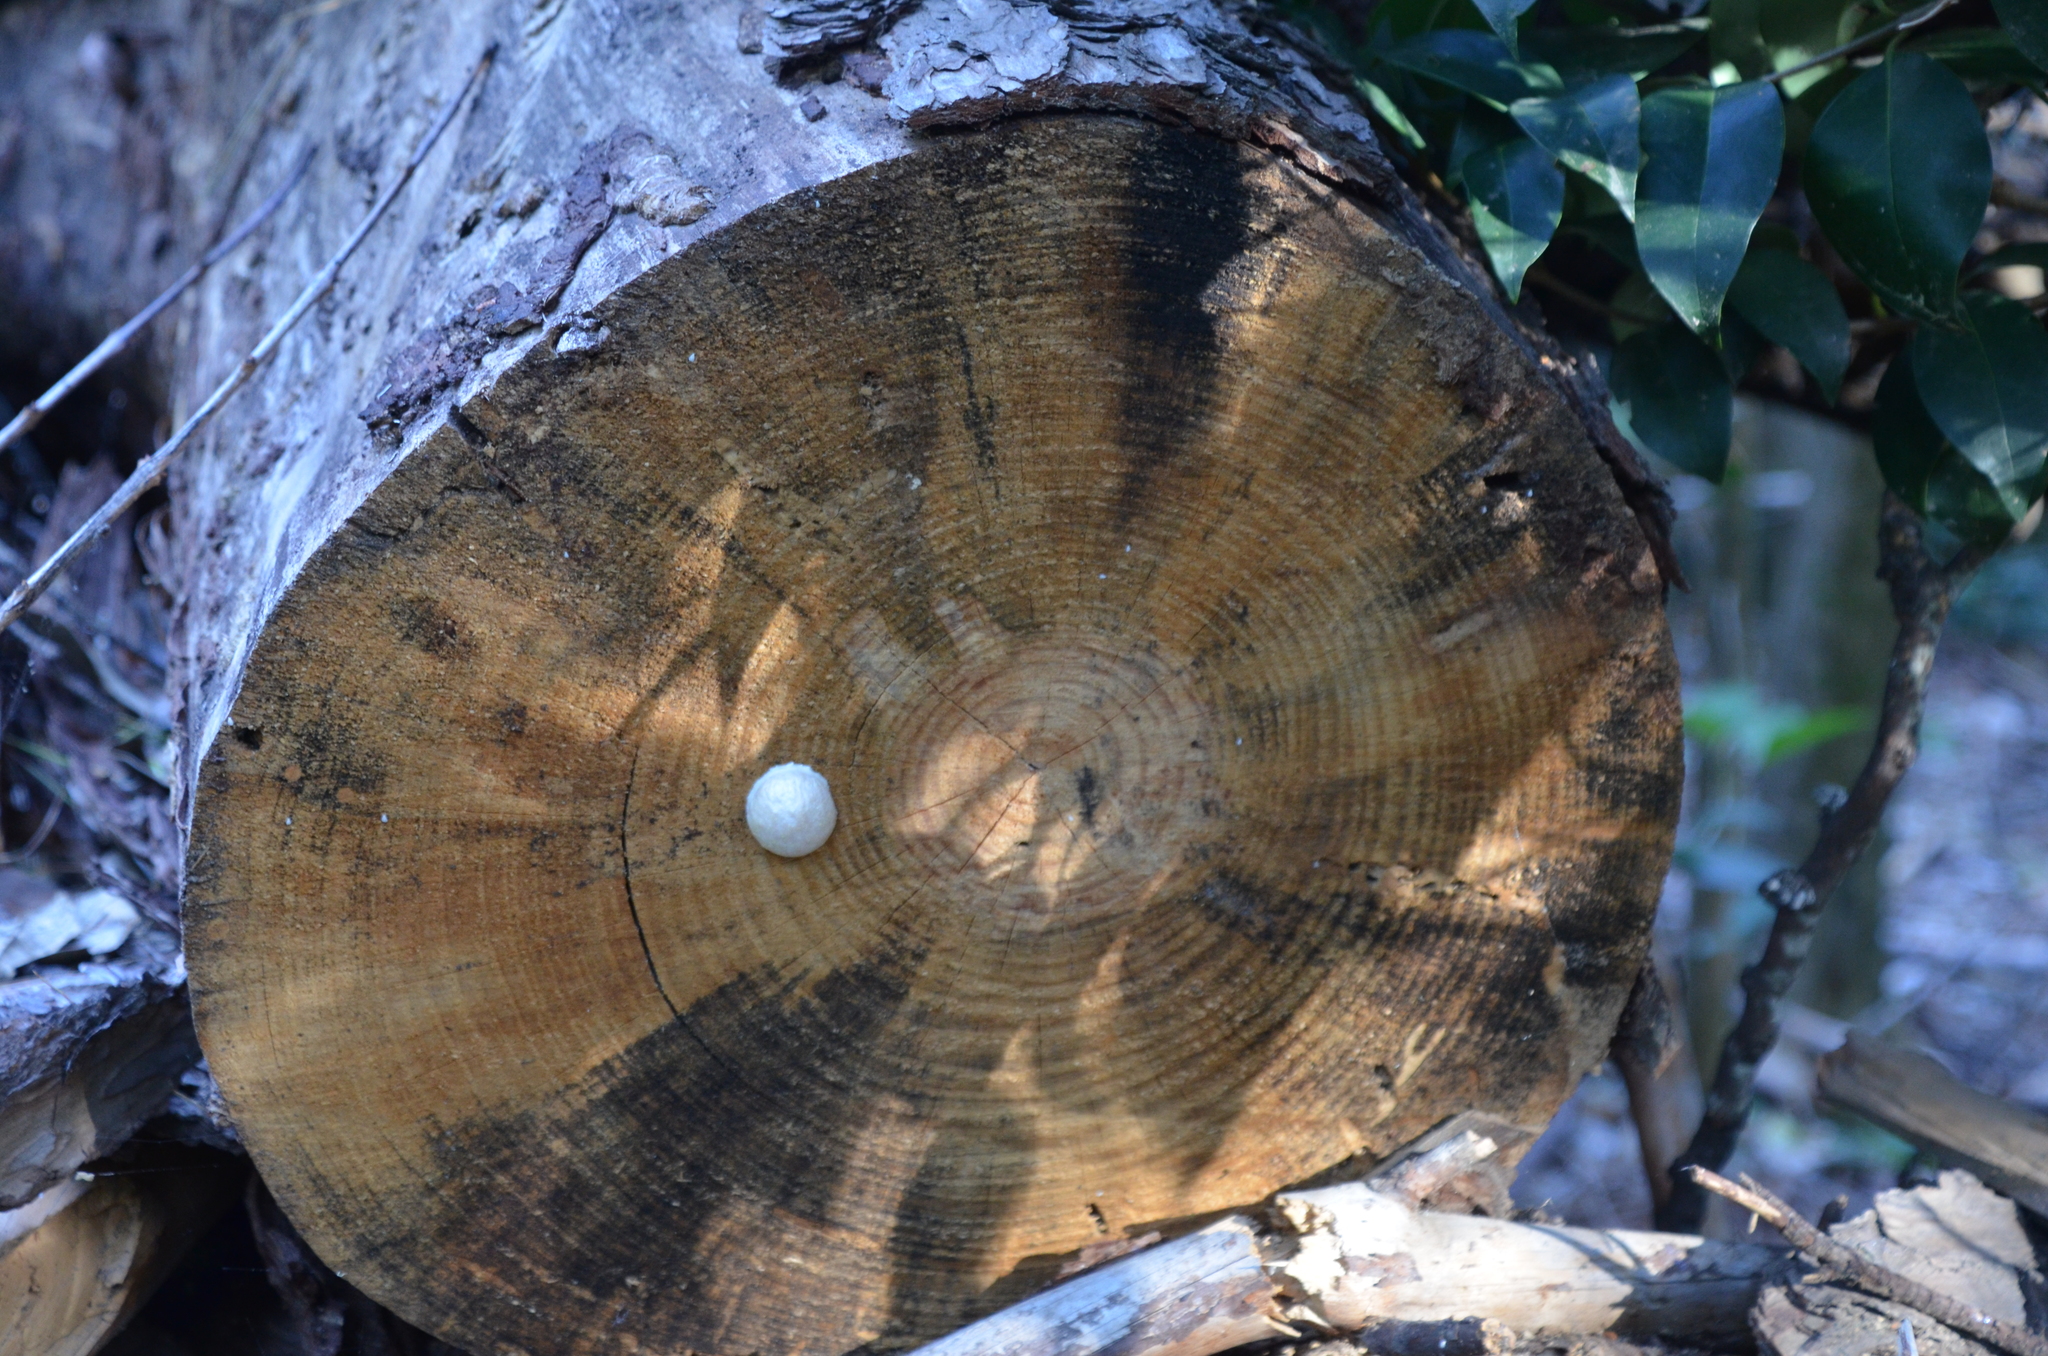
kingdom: Protozoa
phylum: Mycetozoa
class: Myxomycetes
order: Cribrariales
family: Tubiferaceae
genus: Reticularia
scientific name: Reticularia lycoperdon
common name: False puffball
